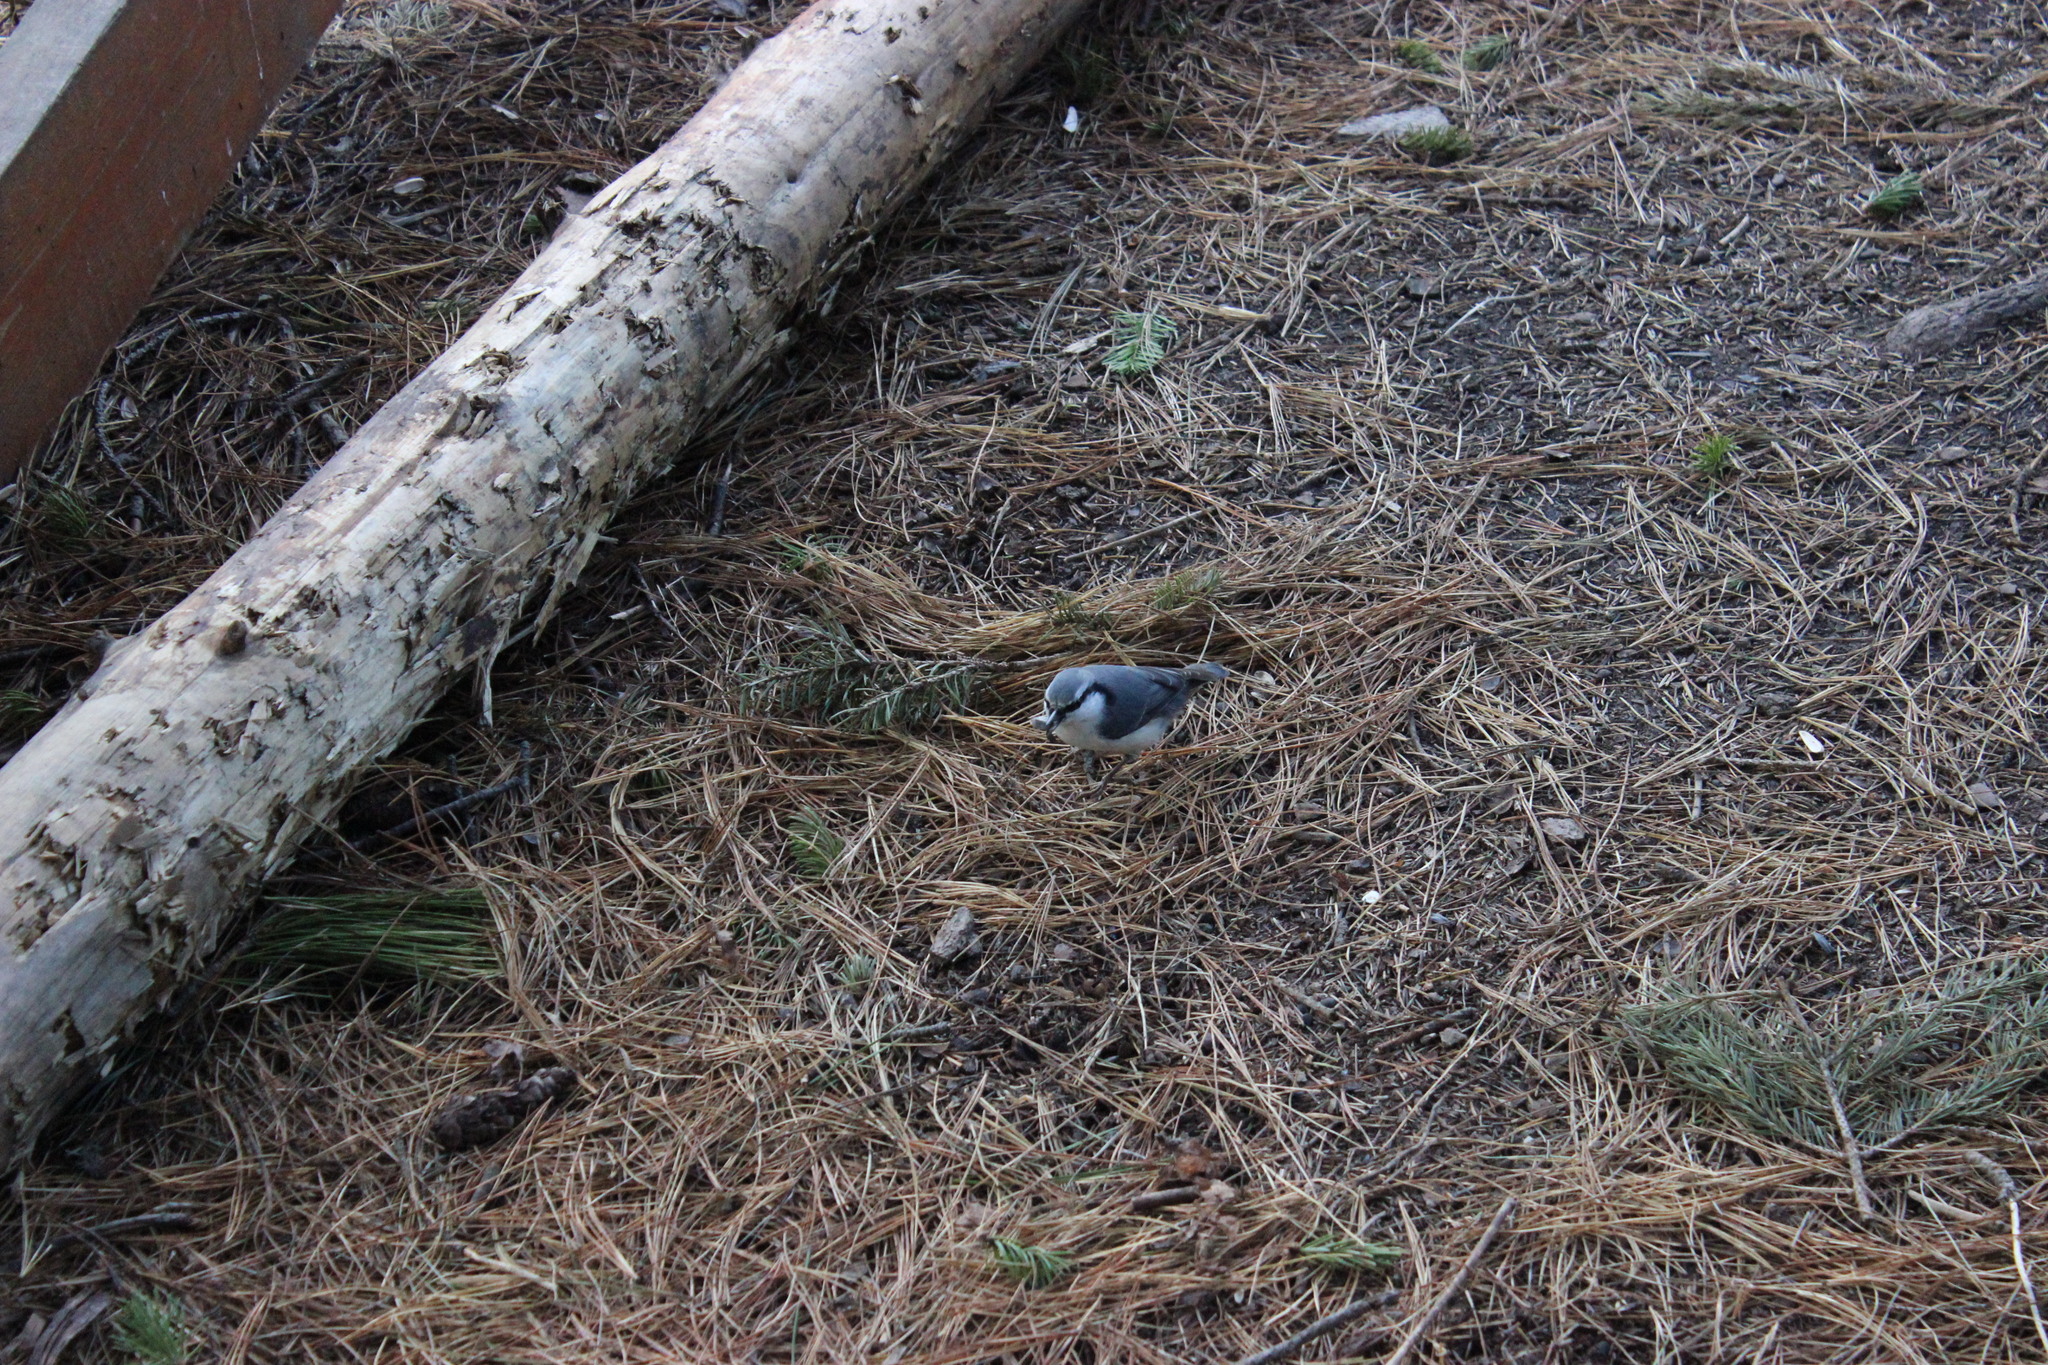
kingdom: Animalia
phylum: Chordata
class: Aves
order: Passeriformes
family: Sittidae
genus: Sitta
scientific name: Sitta europaea
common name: Eurasian nuthatch
